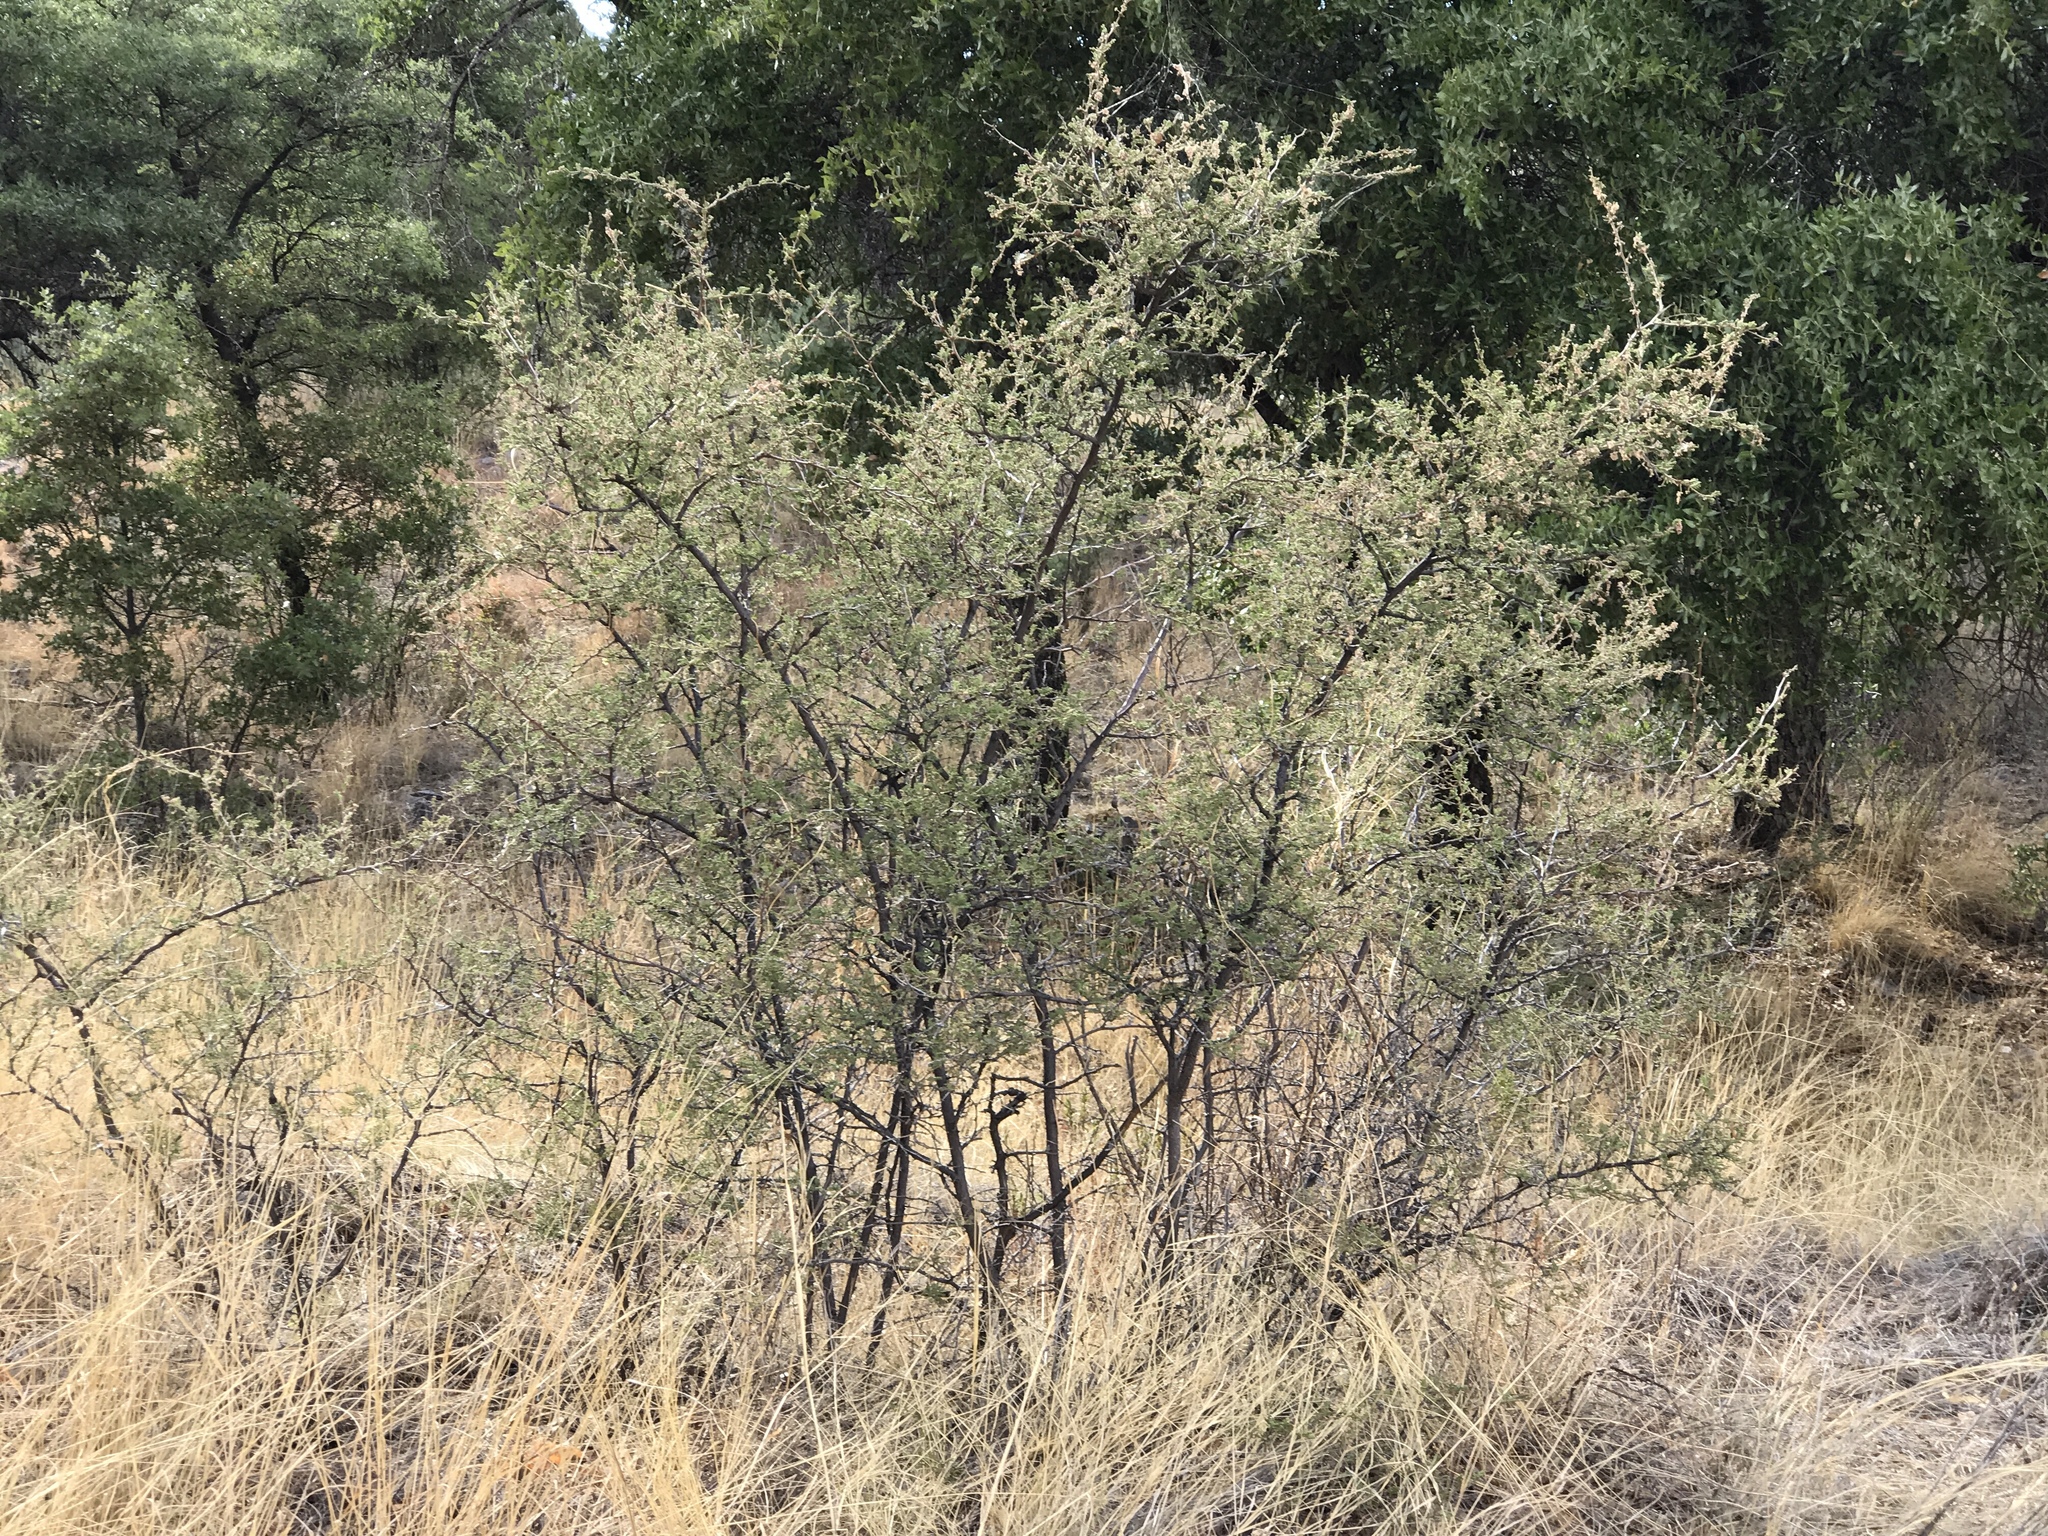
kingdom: Plantae
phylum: Tracheophyta
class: Magnoliopsida
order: Fabales
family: Fabaceae
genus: Mimosa
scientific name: Mimosa biuncifera
